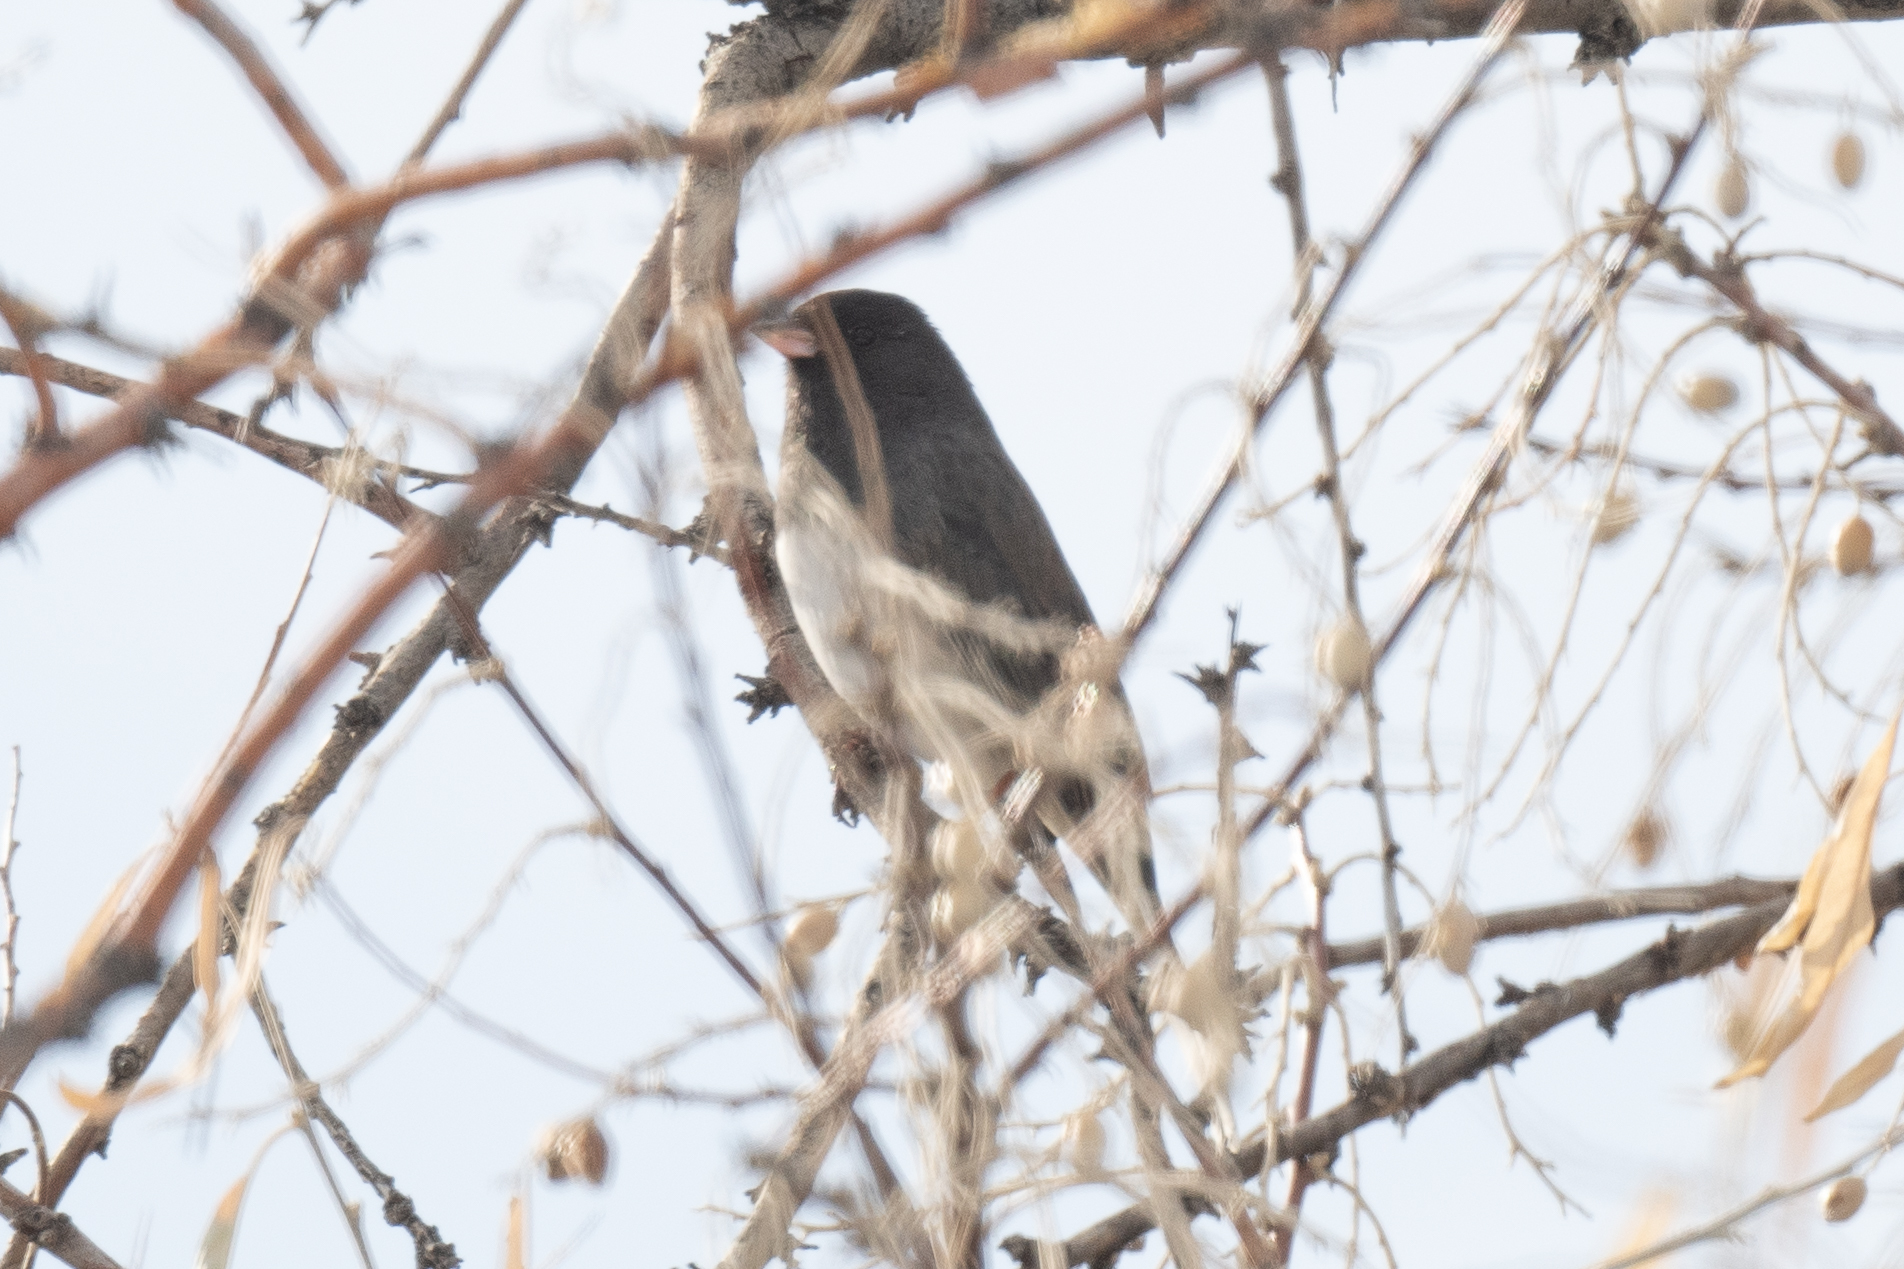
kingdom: Animalia
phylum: Chordata
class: Aves
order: Passeriformes
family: Passerellidae
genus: Junco
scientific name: Junco hyemalis
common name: Dark-eyed junco
